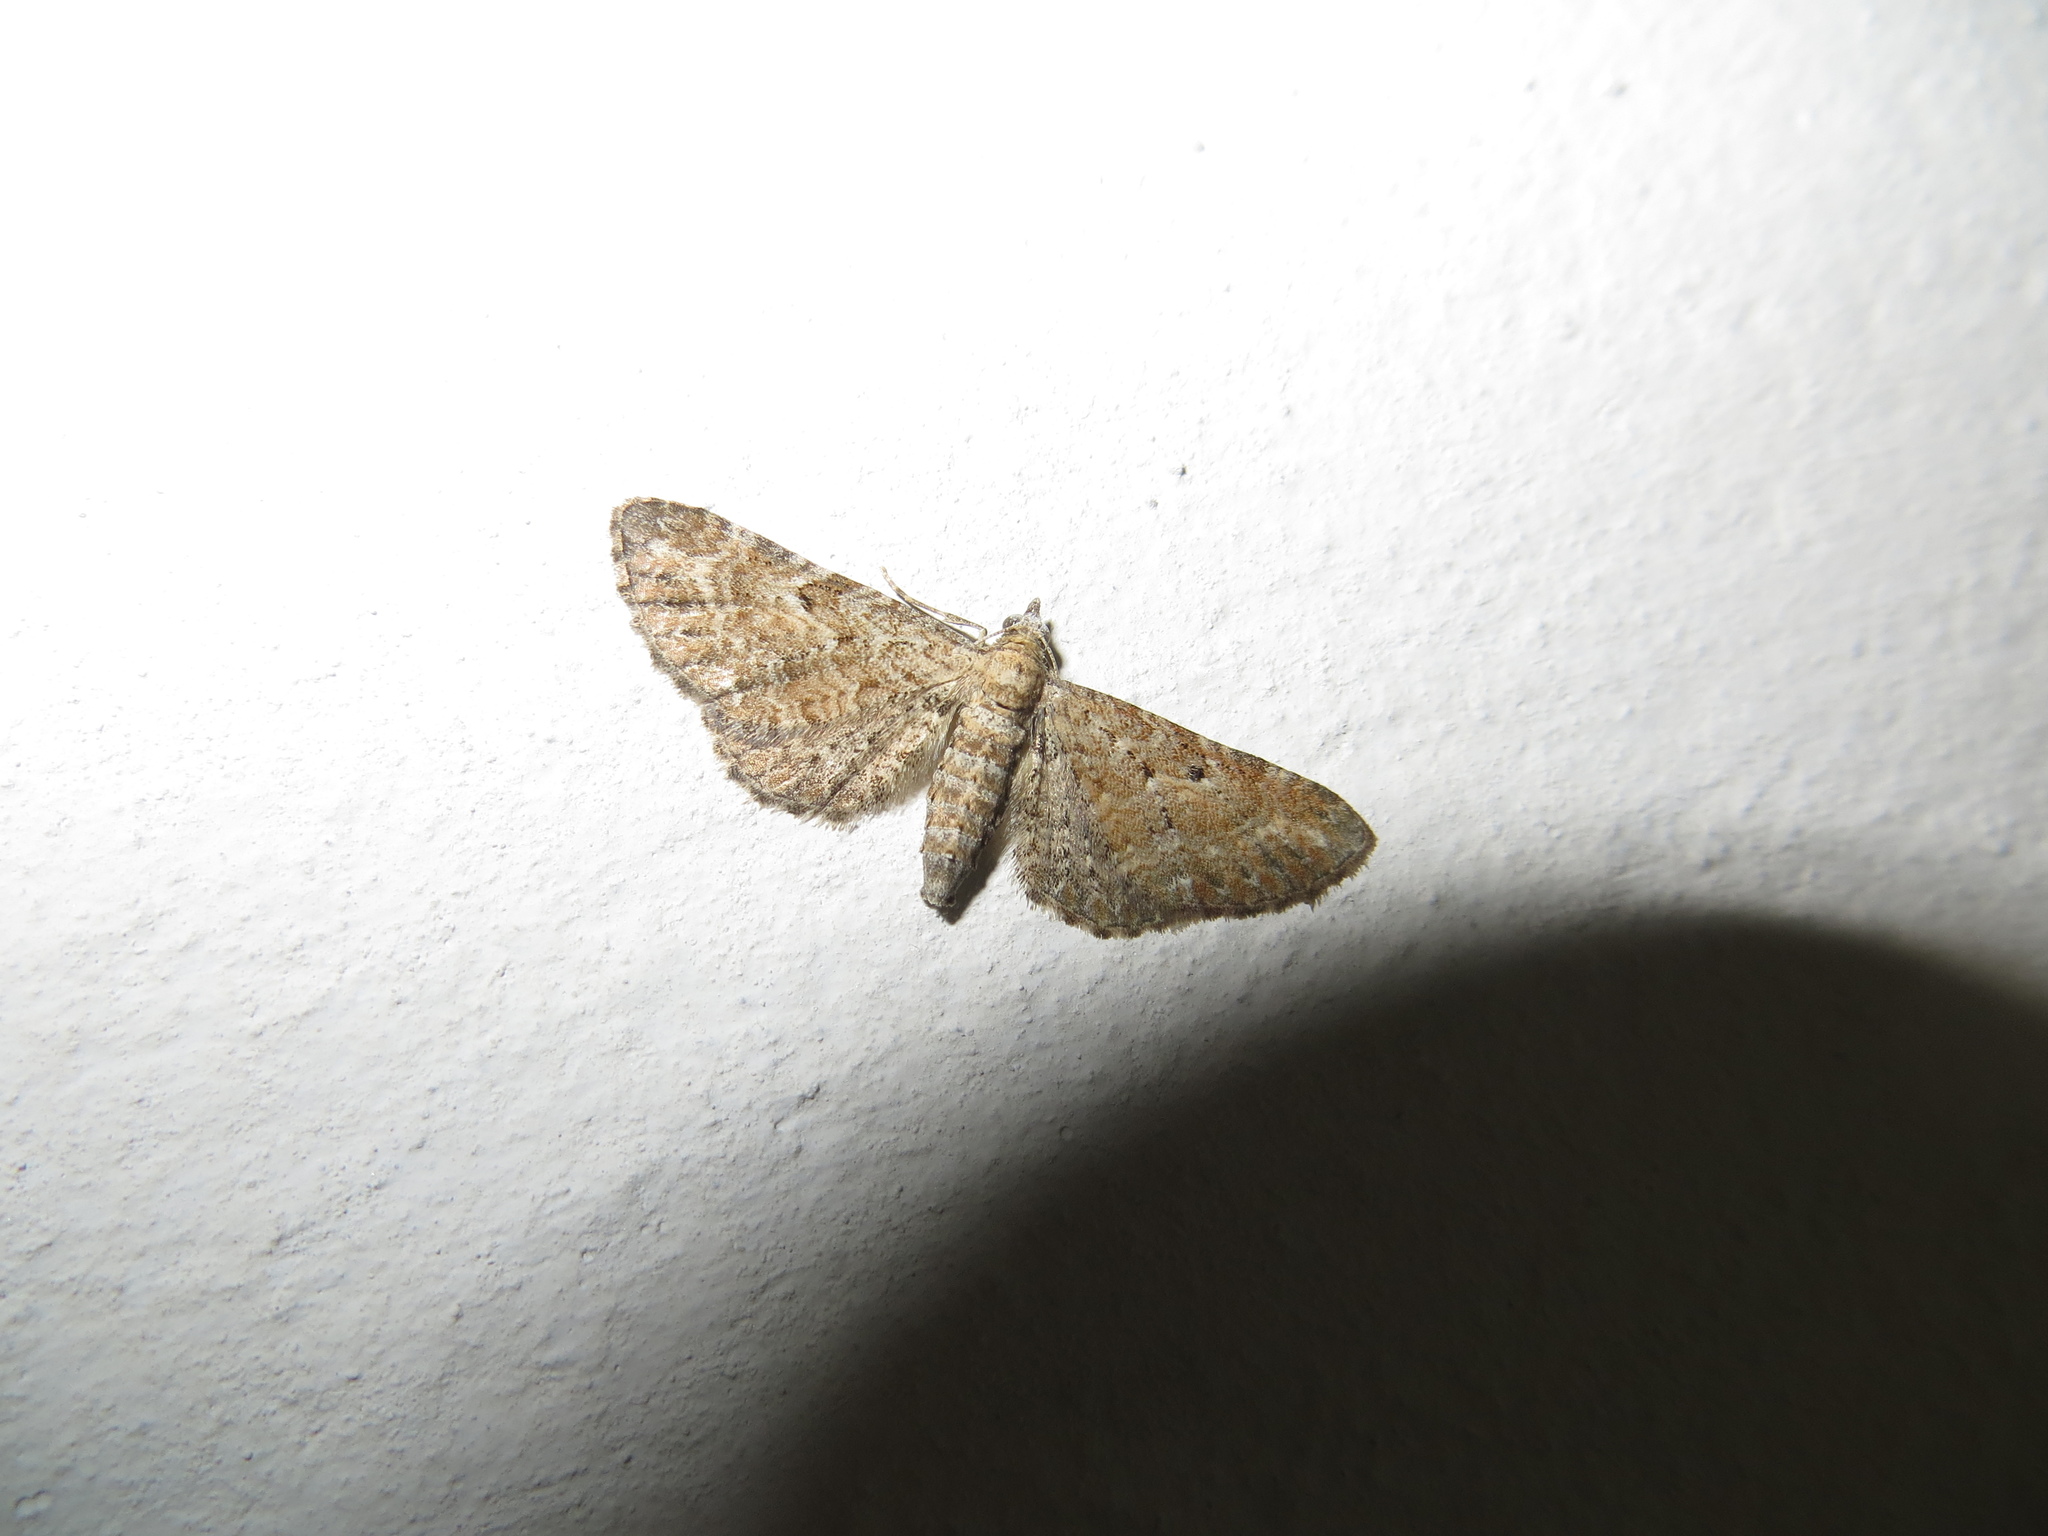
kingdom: Animalia
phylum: Arthropoda
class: Insecta
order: Lepidoptera
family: Geometridae
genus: Eupithecia
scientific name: Eupithecia icterata
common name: Tawny speckled pug
